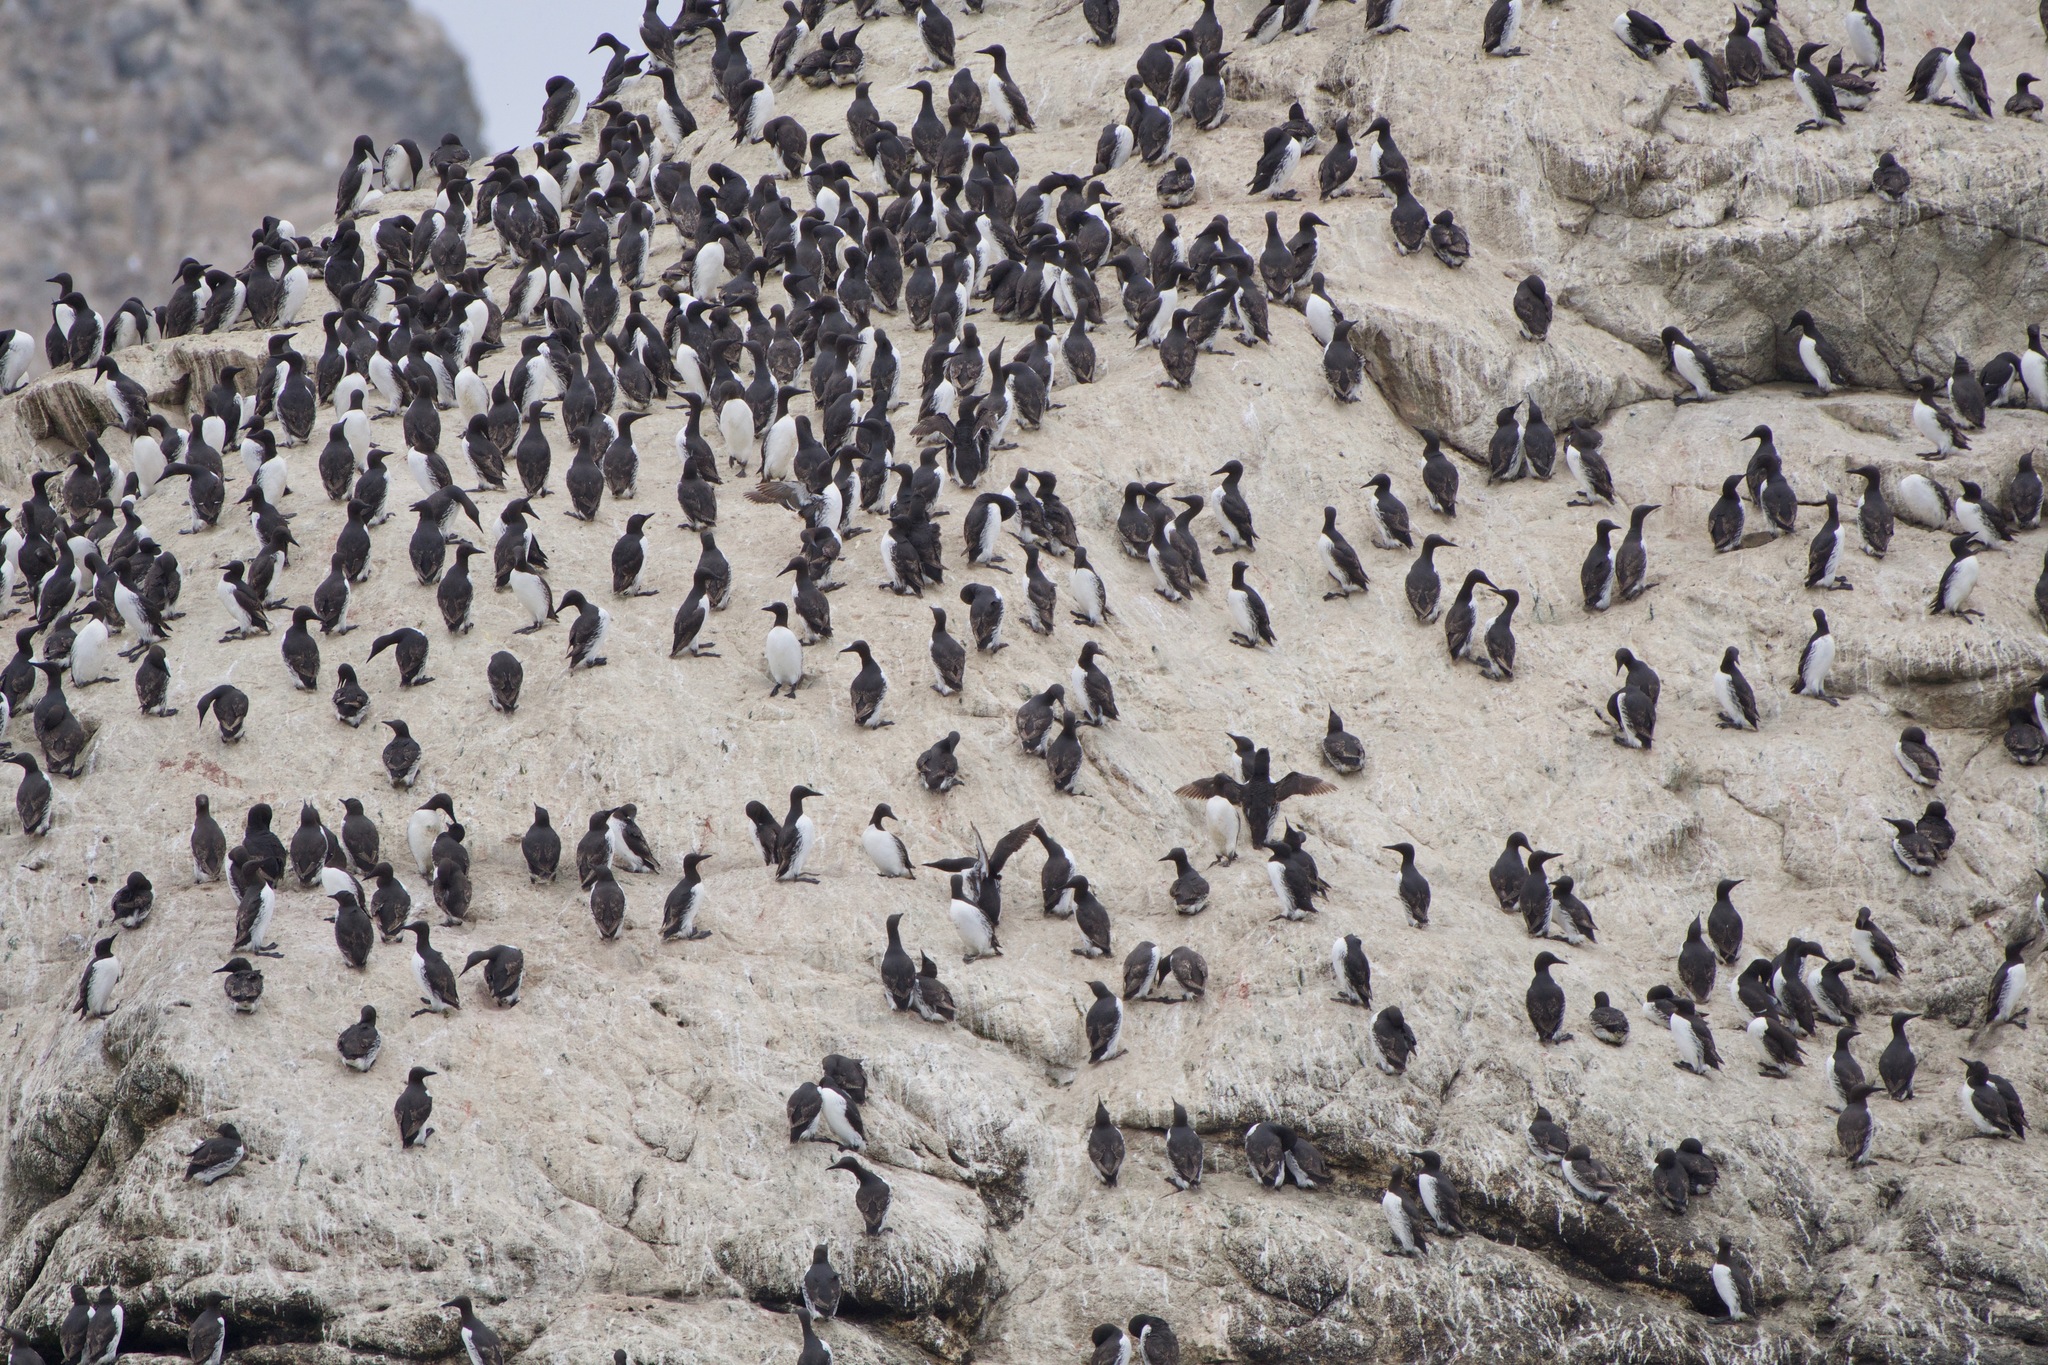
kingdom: Animalia
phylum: Chordata
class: Aves
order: Charadriiformes
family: Alcidae
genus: Uria
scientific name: Uria aalge
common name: Common murre
